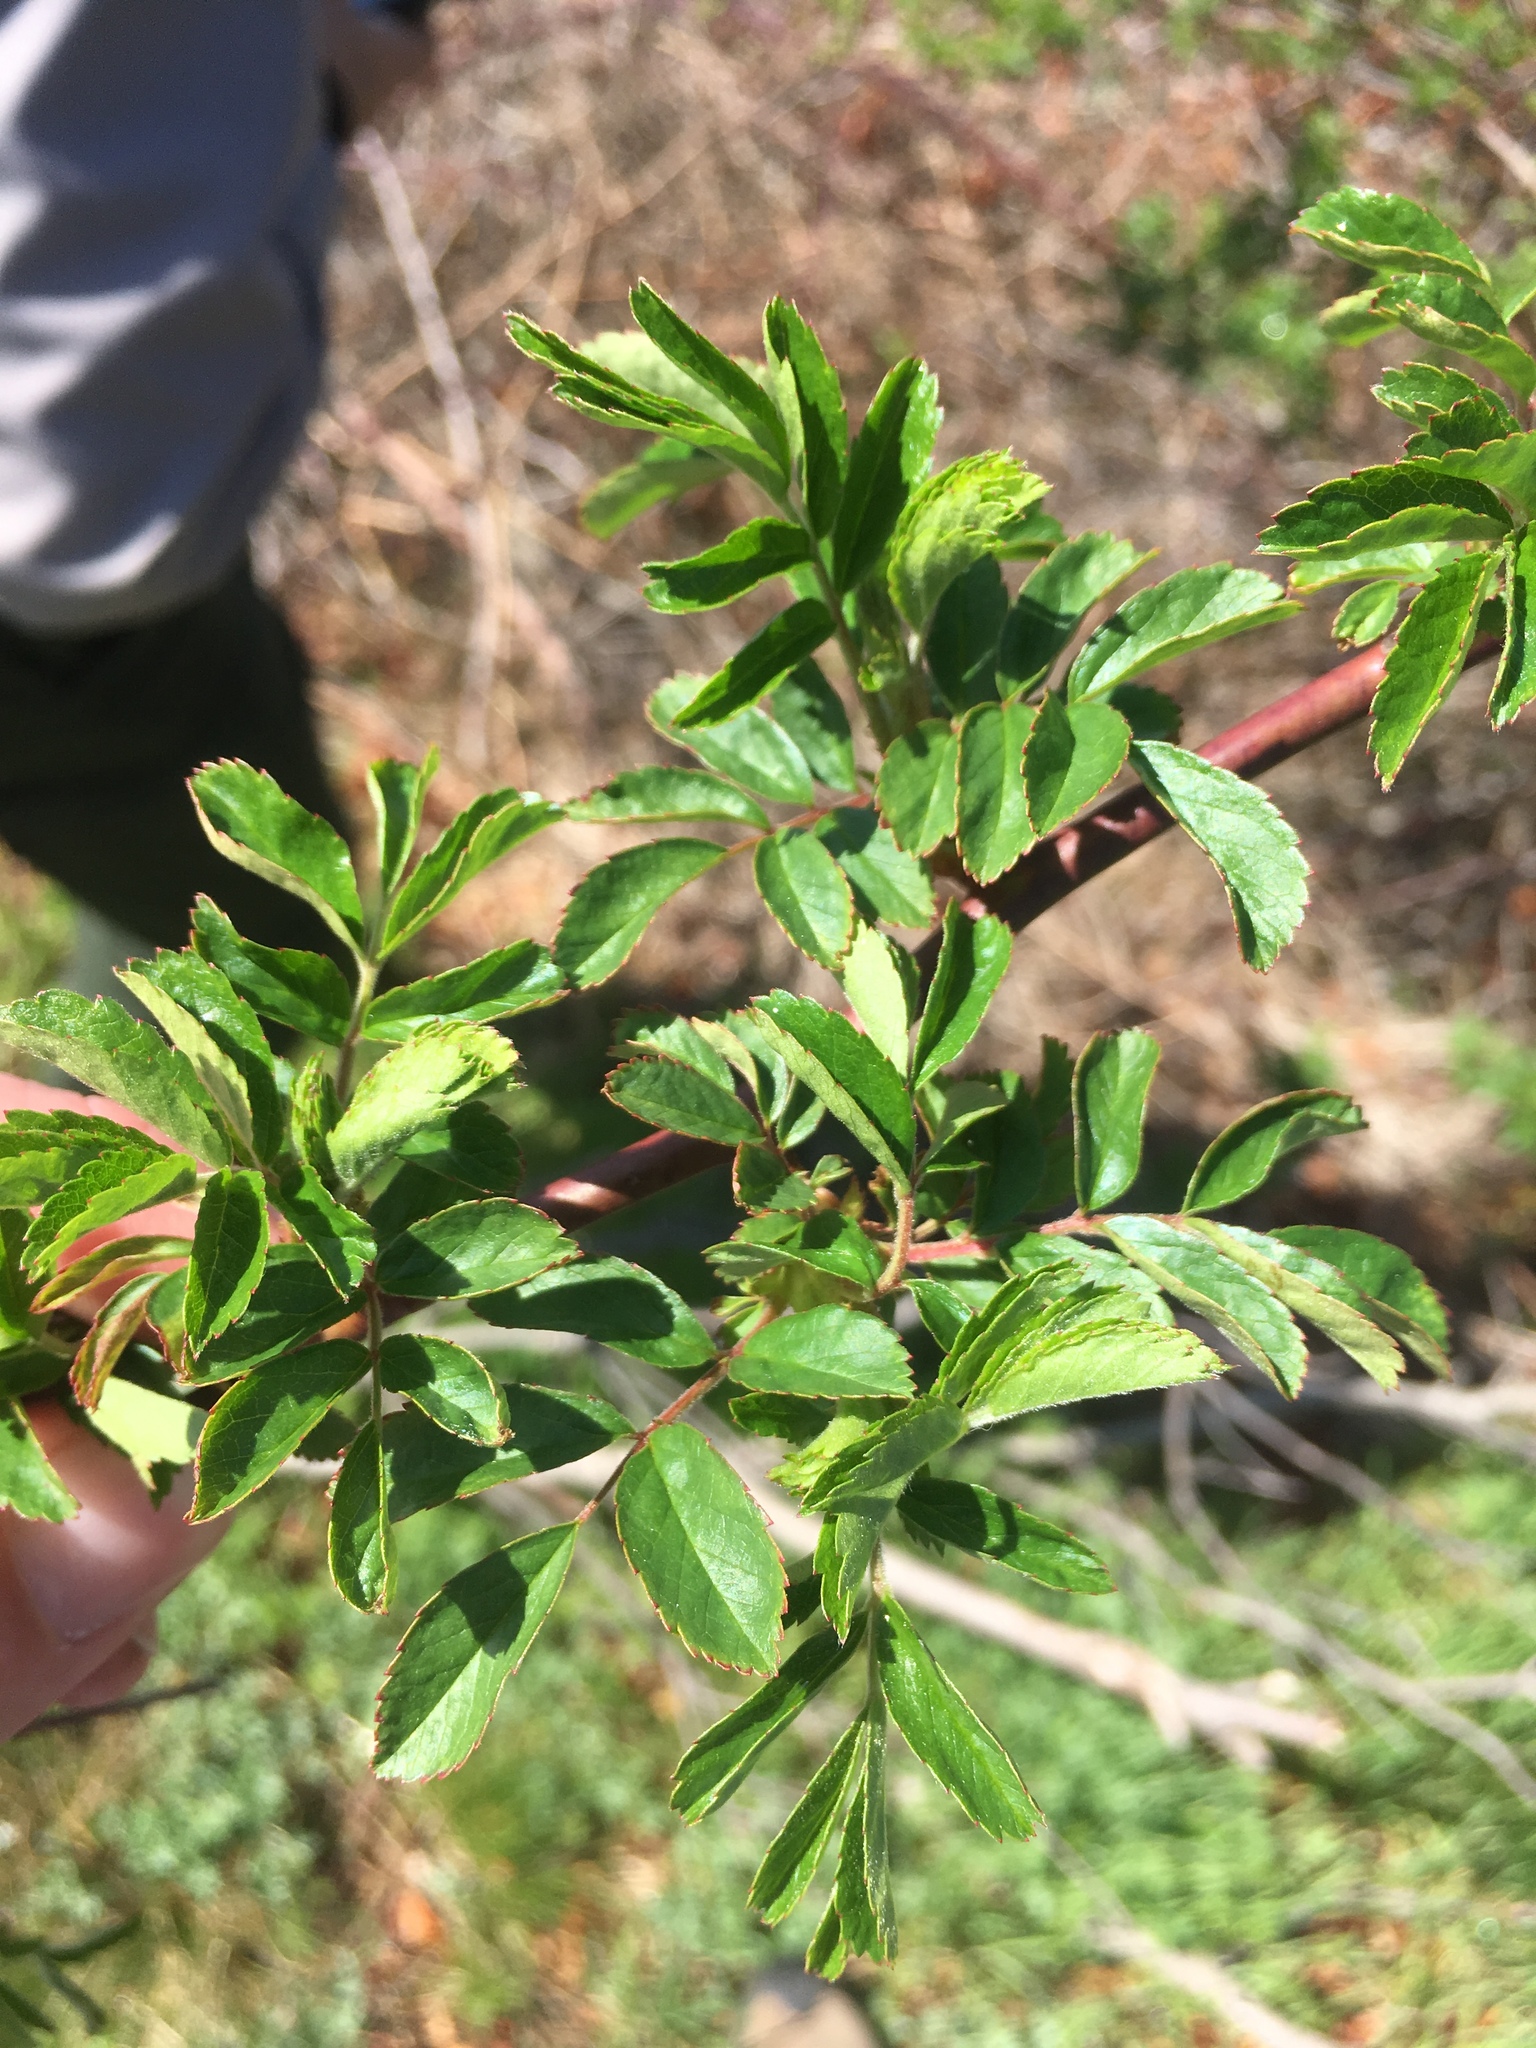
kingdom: Plantae
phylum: Tracheophyta
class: Magnoliopsida
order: Rosales
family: Rosaceae
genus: Rosa
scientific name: Rosa multiflora
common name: Multiflora rose
